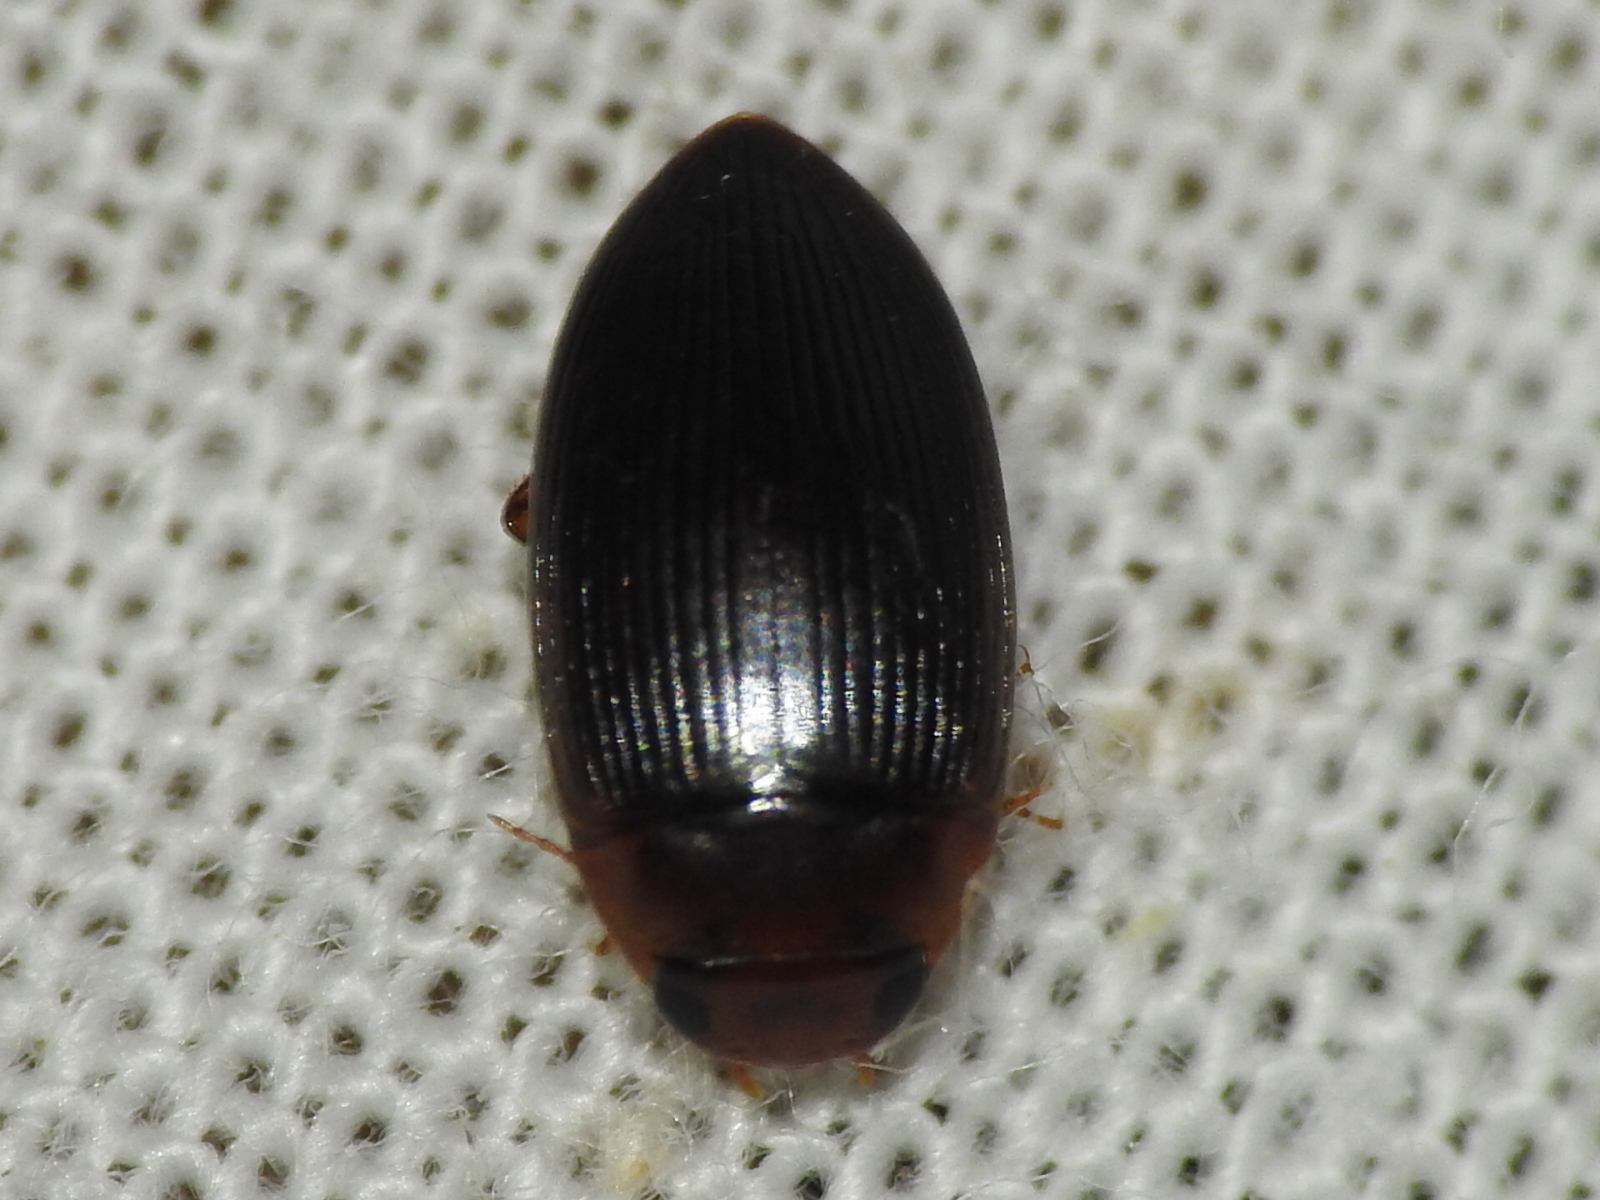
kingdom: Animalia
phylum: Arthropoda
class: Insecta
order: Coleoptera
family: Dytiscidae
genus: Copelatus
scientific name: Copelatus glyphicus
